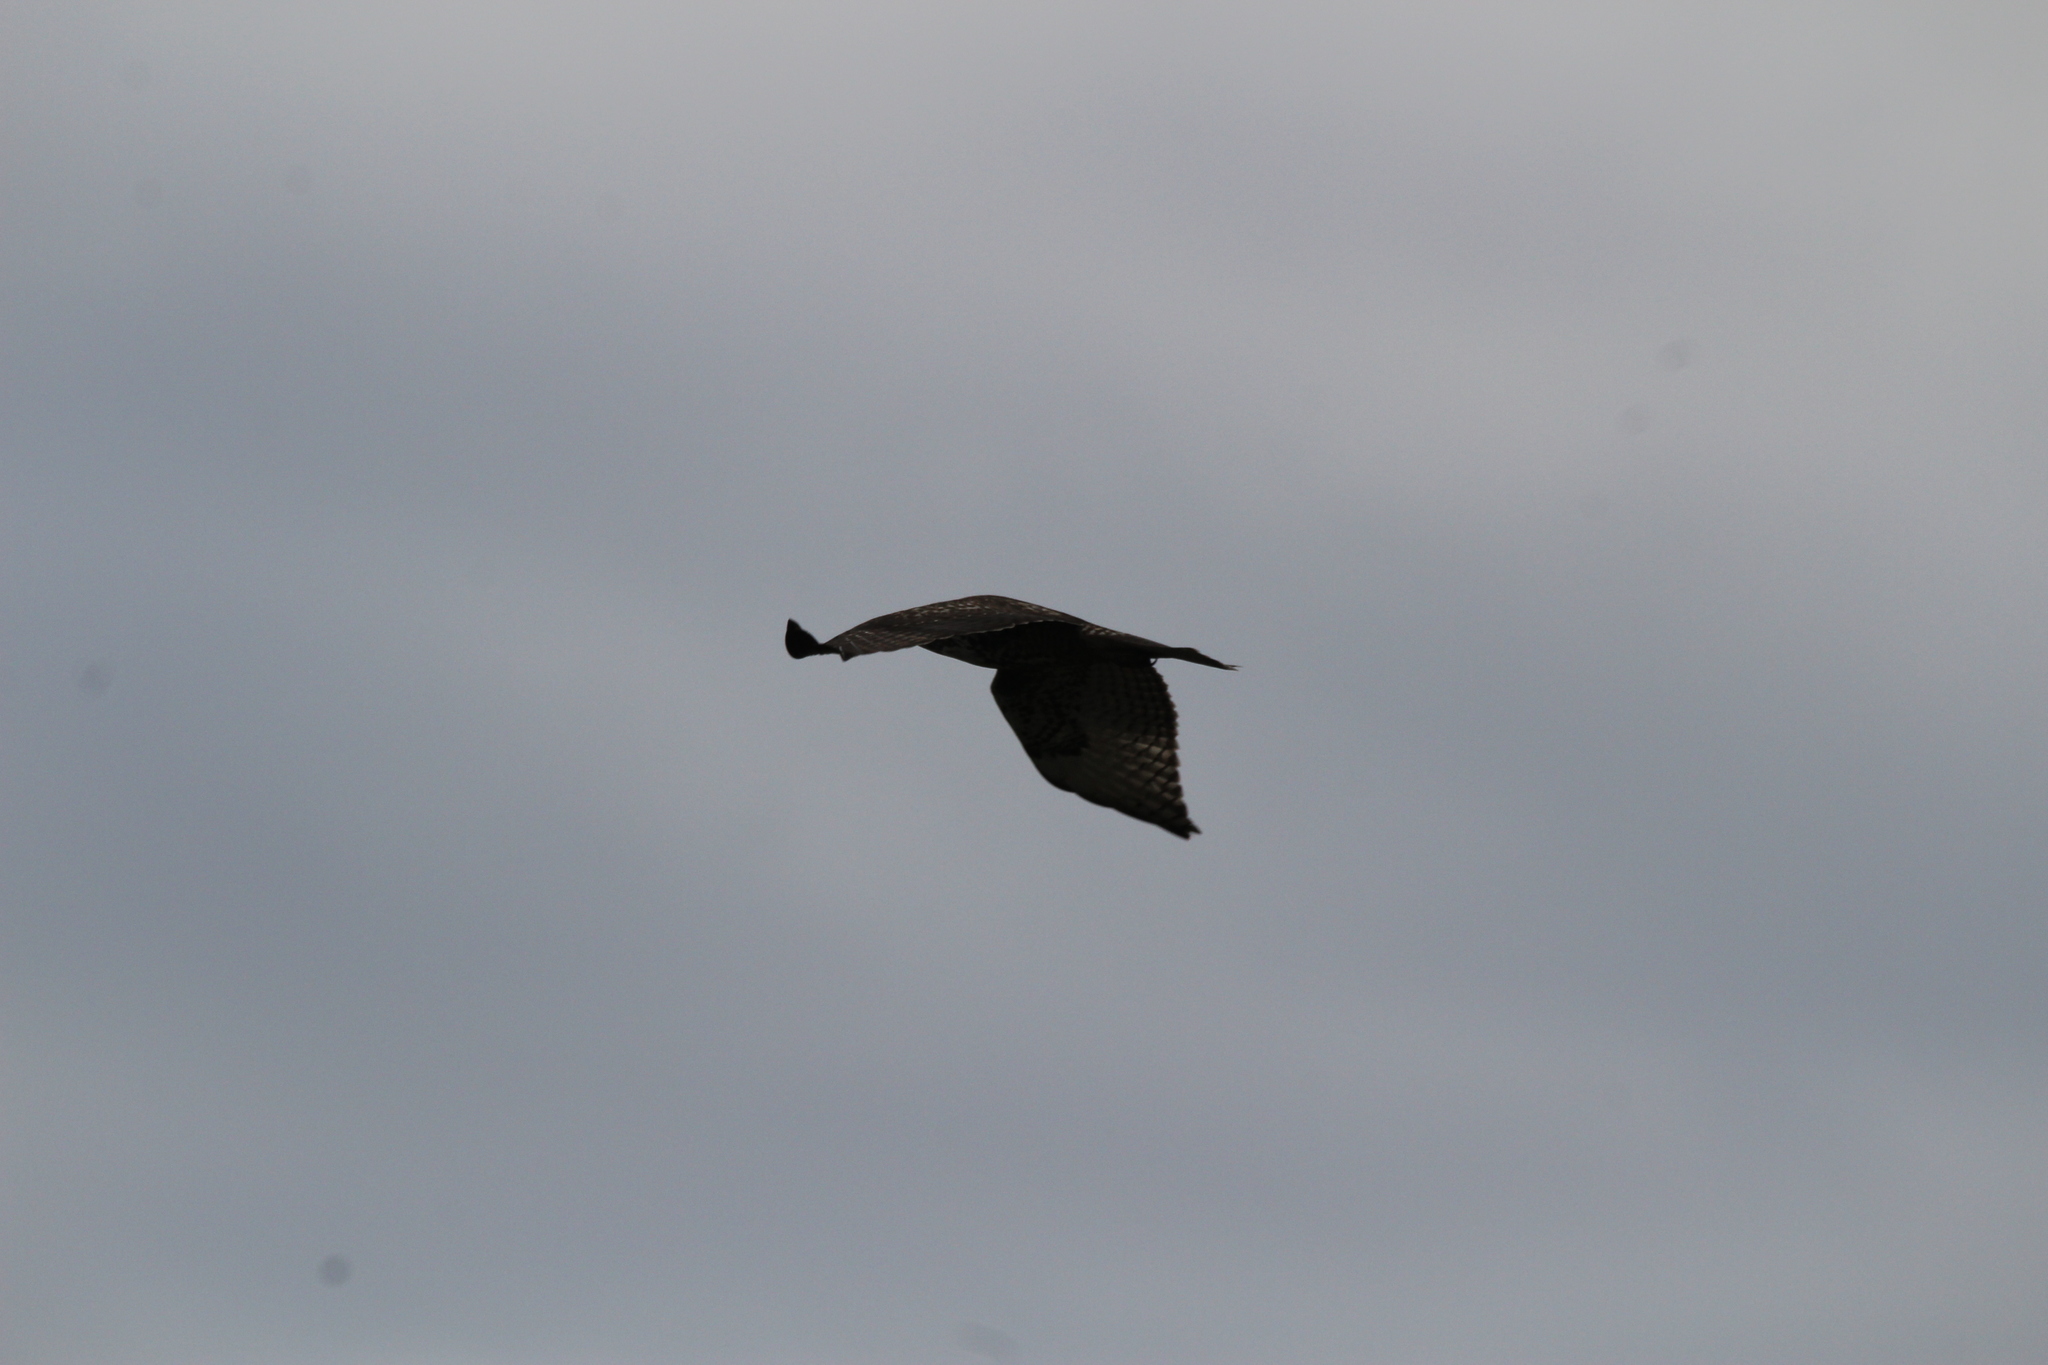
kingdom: Animalia
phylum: Chordata
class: Aves
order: Accipitriformes
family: Accipitridae
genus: Buteo
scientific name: Buteo jamaicensis
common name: Red-tailed hawk
